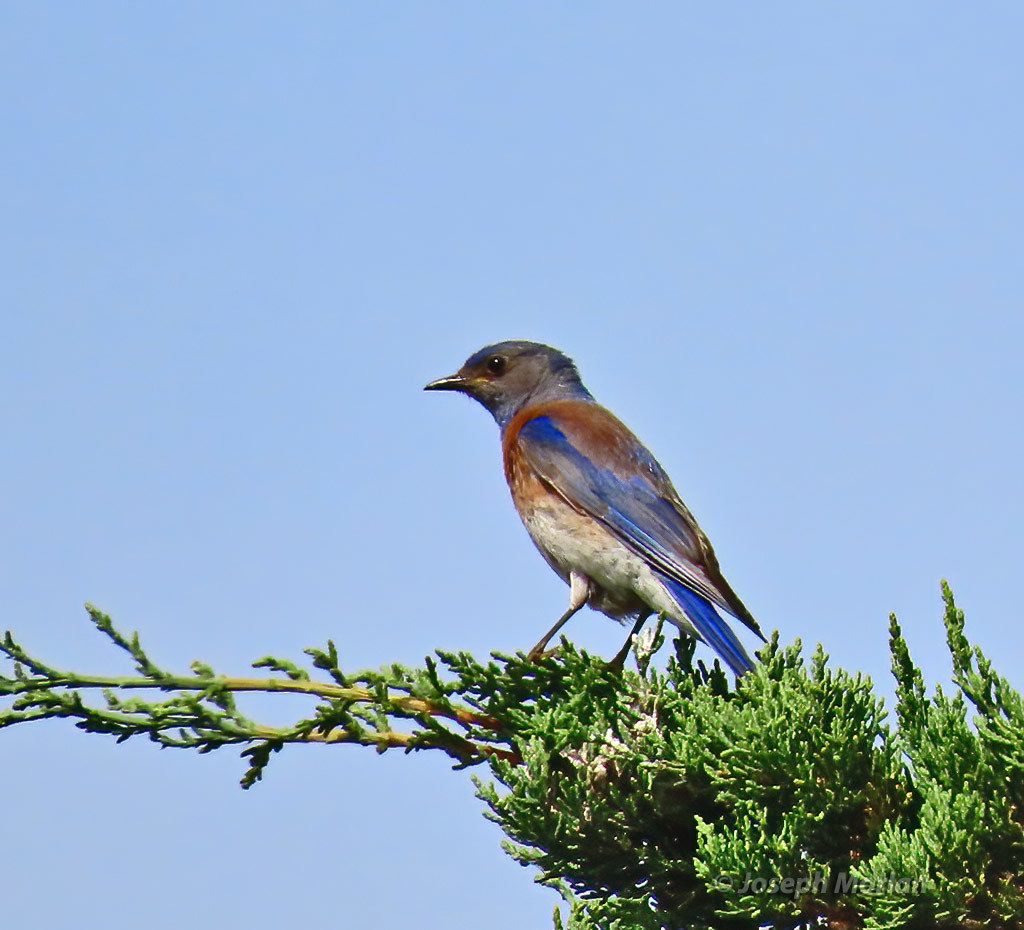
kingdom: Animalia
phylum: Chordata
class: Aves
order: Passeriformes
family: Turdidae
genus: Sialia
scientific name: Sialia mexicana
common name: Western bluebird
